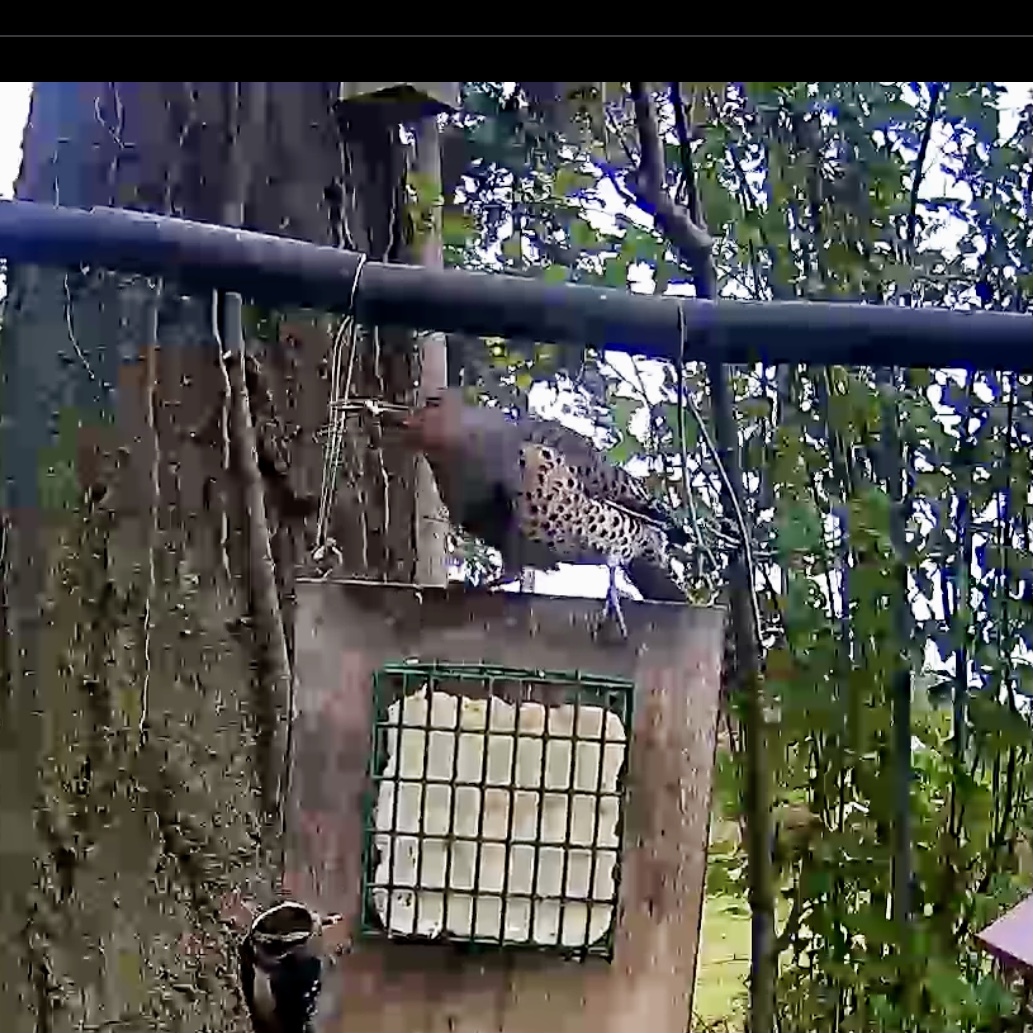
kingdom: Animalia
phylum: Chordata
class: Aves
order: Piciformes
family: Picidae
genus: Colaptes
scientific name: Colaptes auratus
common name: Northern flicker
